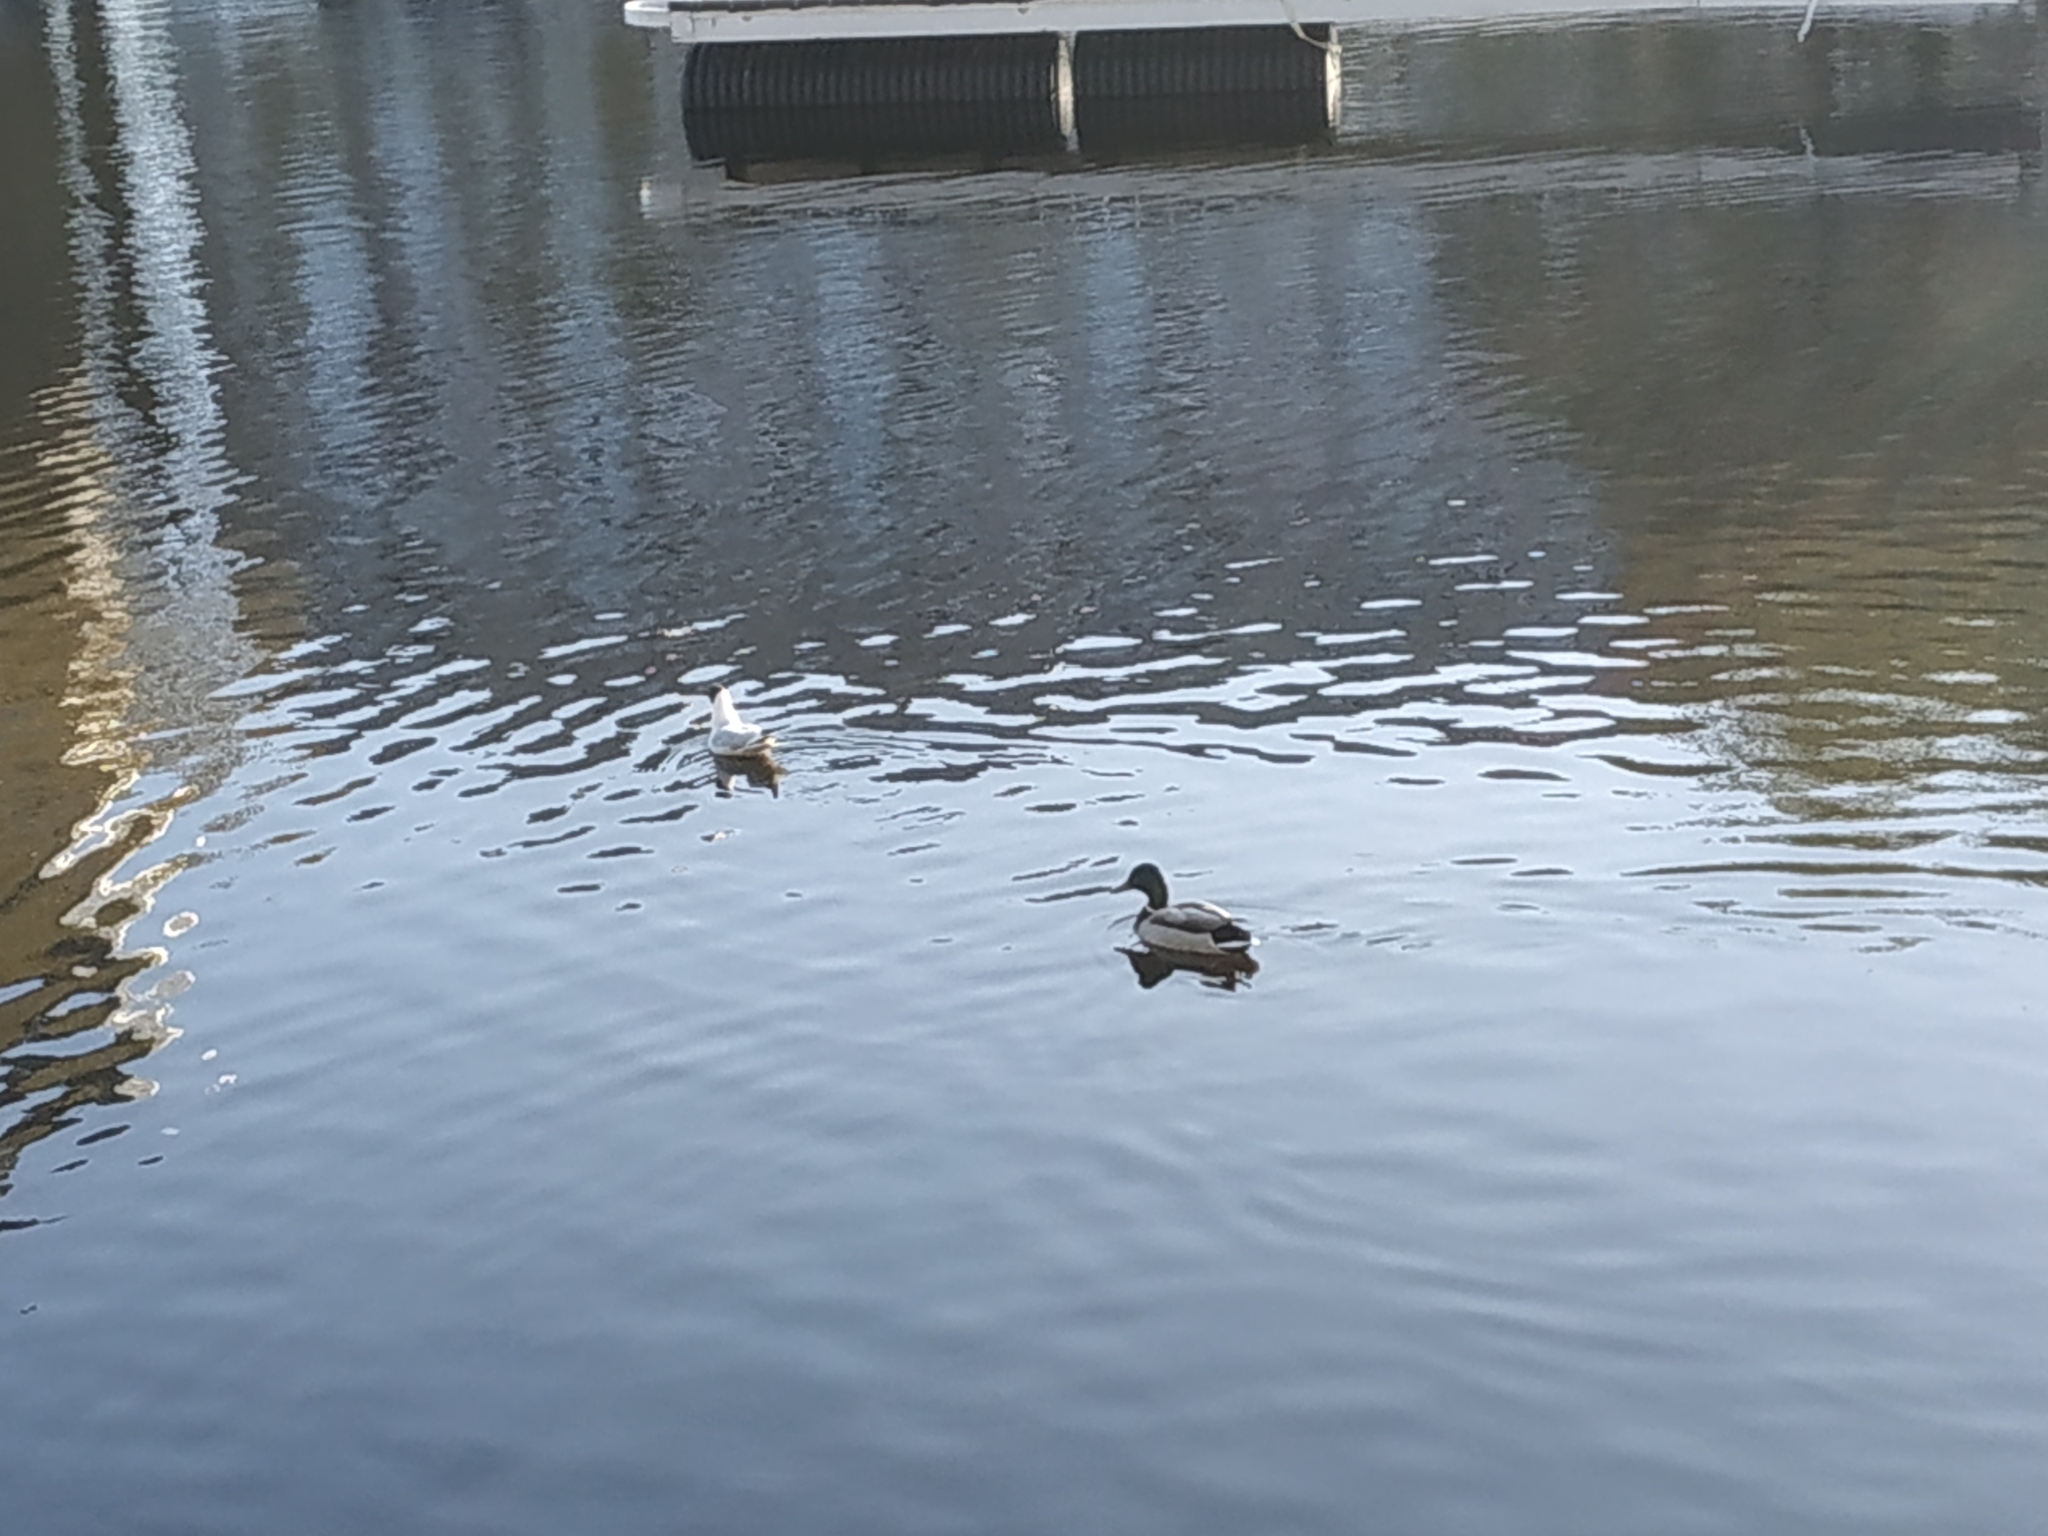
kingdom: Animalia
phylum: Chordata
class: Aves
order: Charadriiformes
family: Laridae
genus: Chroicocephalus
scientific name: Chroicocephalus ridibundus
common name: Black-headed gull
